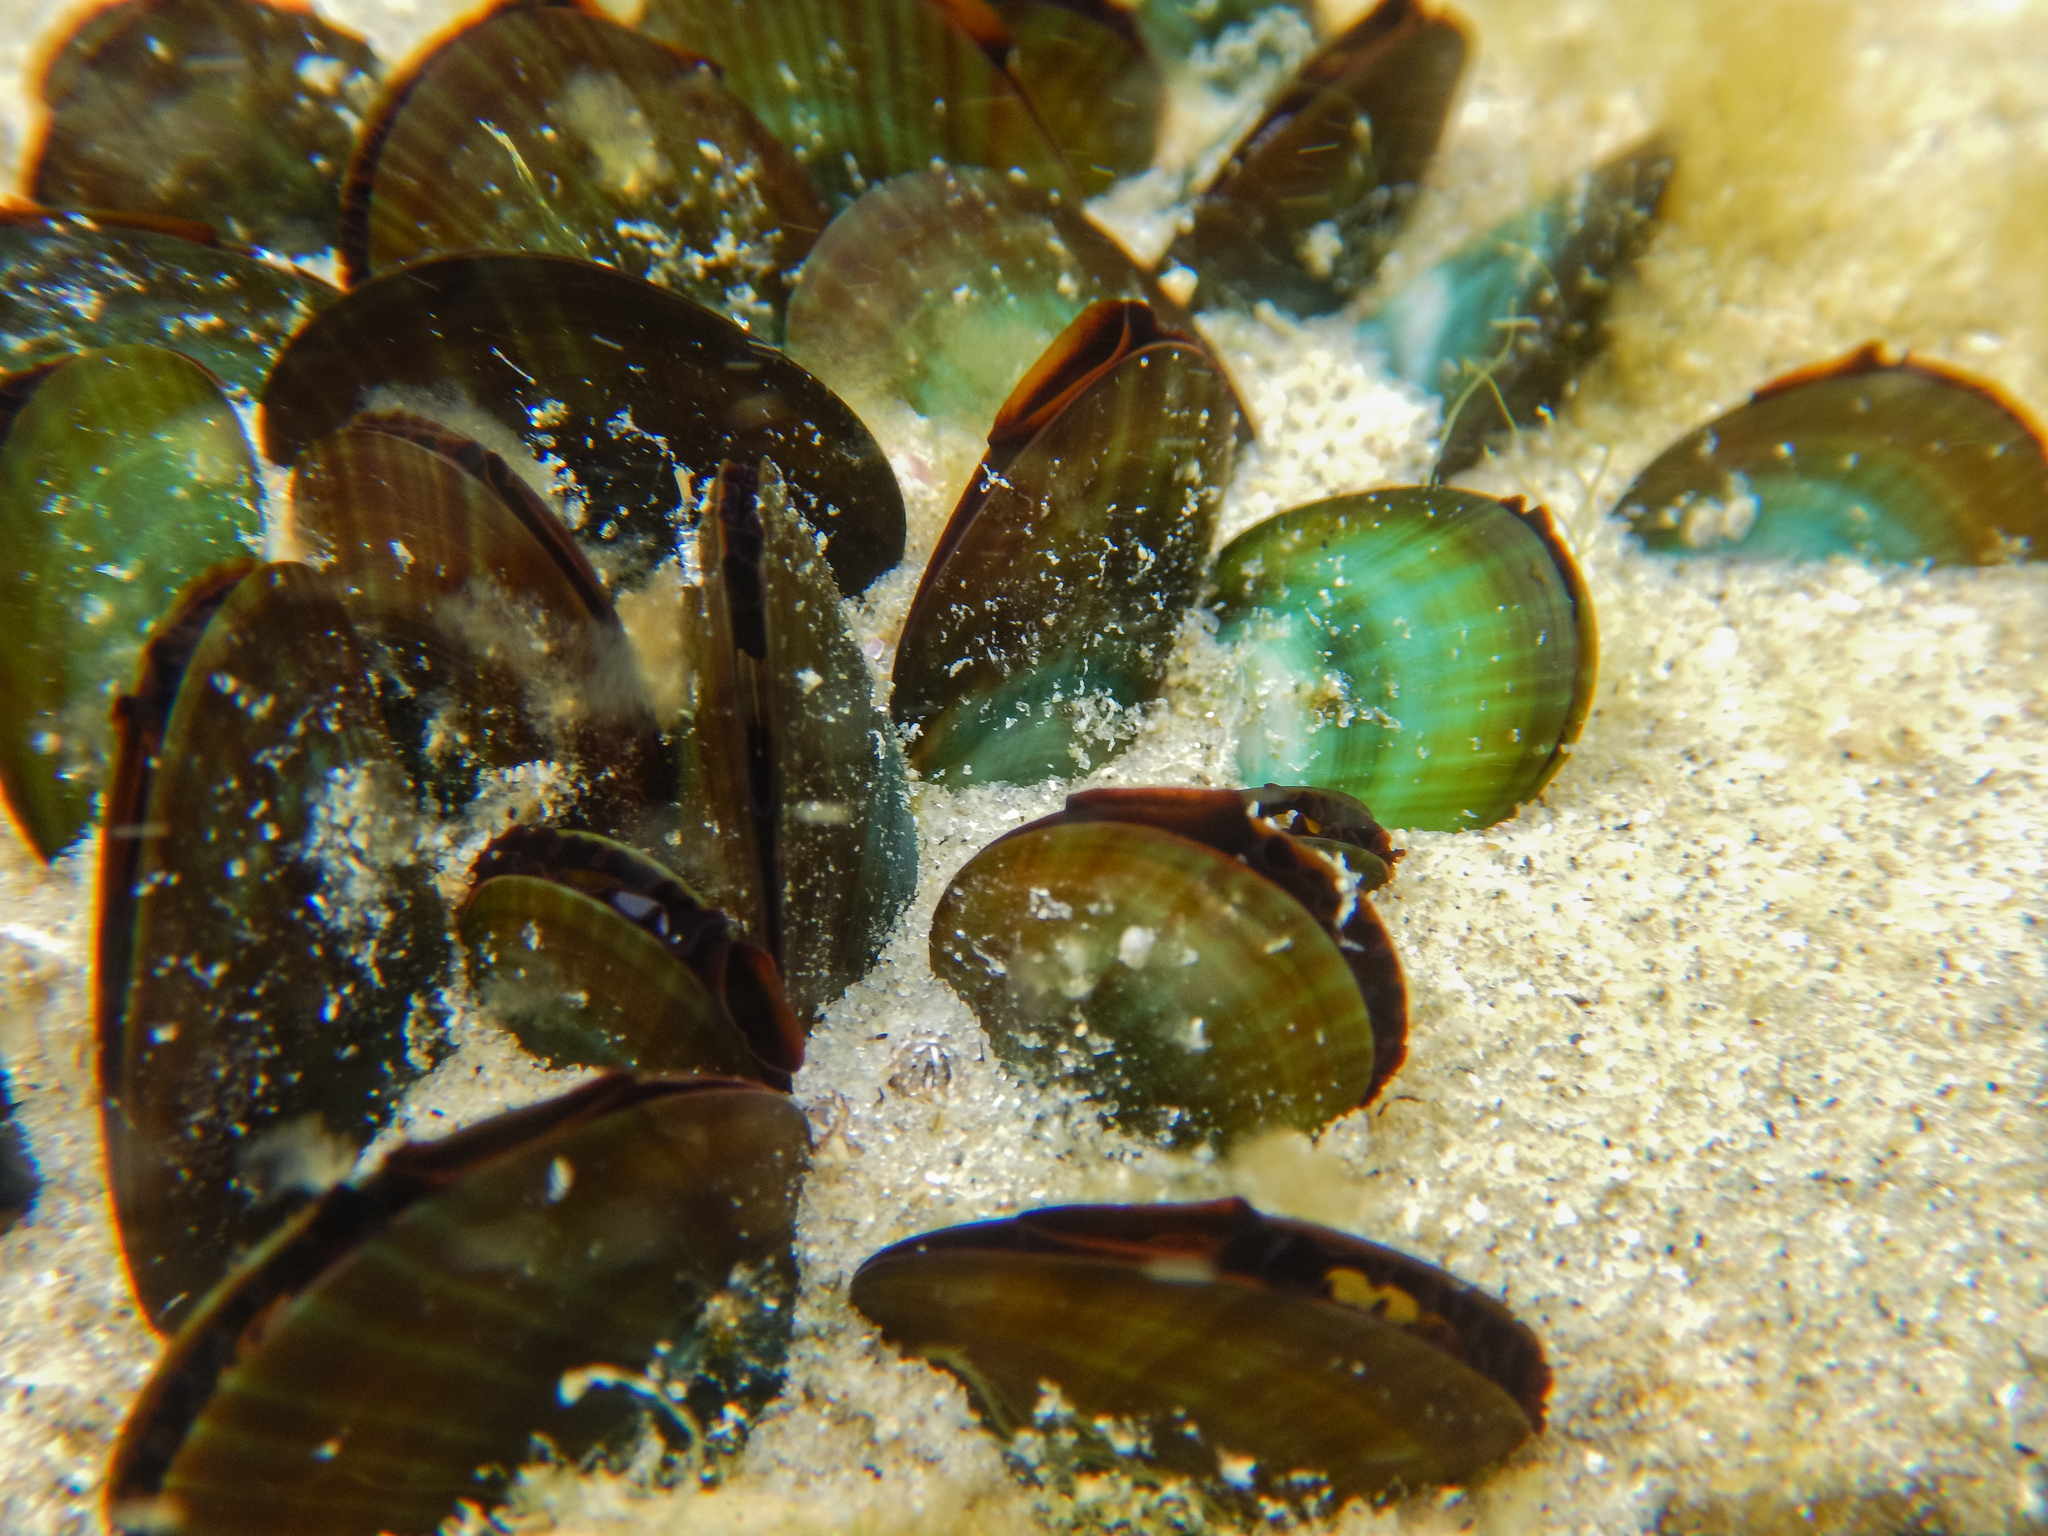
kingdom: Animalia
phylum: Mollusca
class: Bivalvia
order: Mytilida
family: Mytilidae
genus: Perna
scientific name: Perna canaliculus
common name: New zealand greenshelltm
